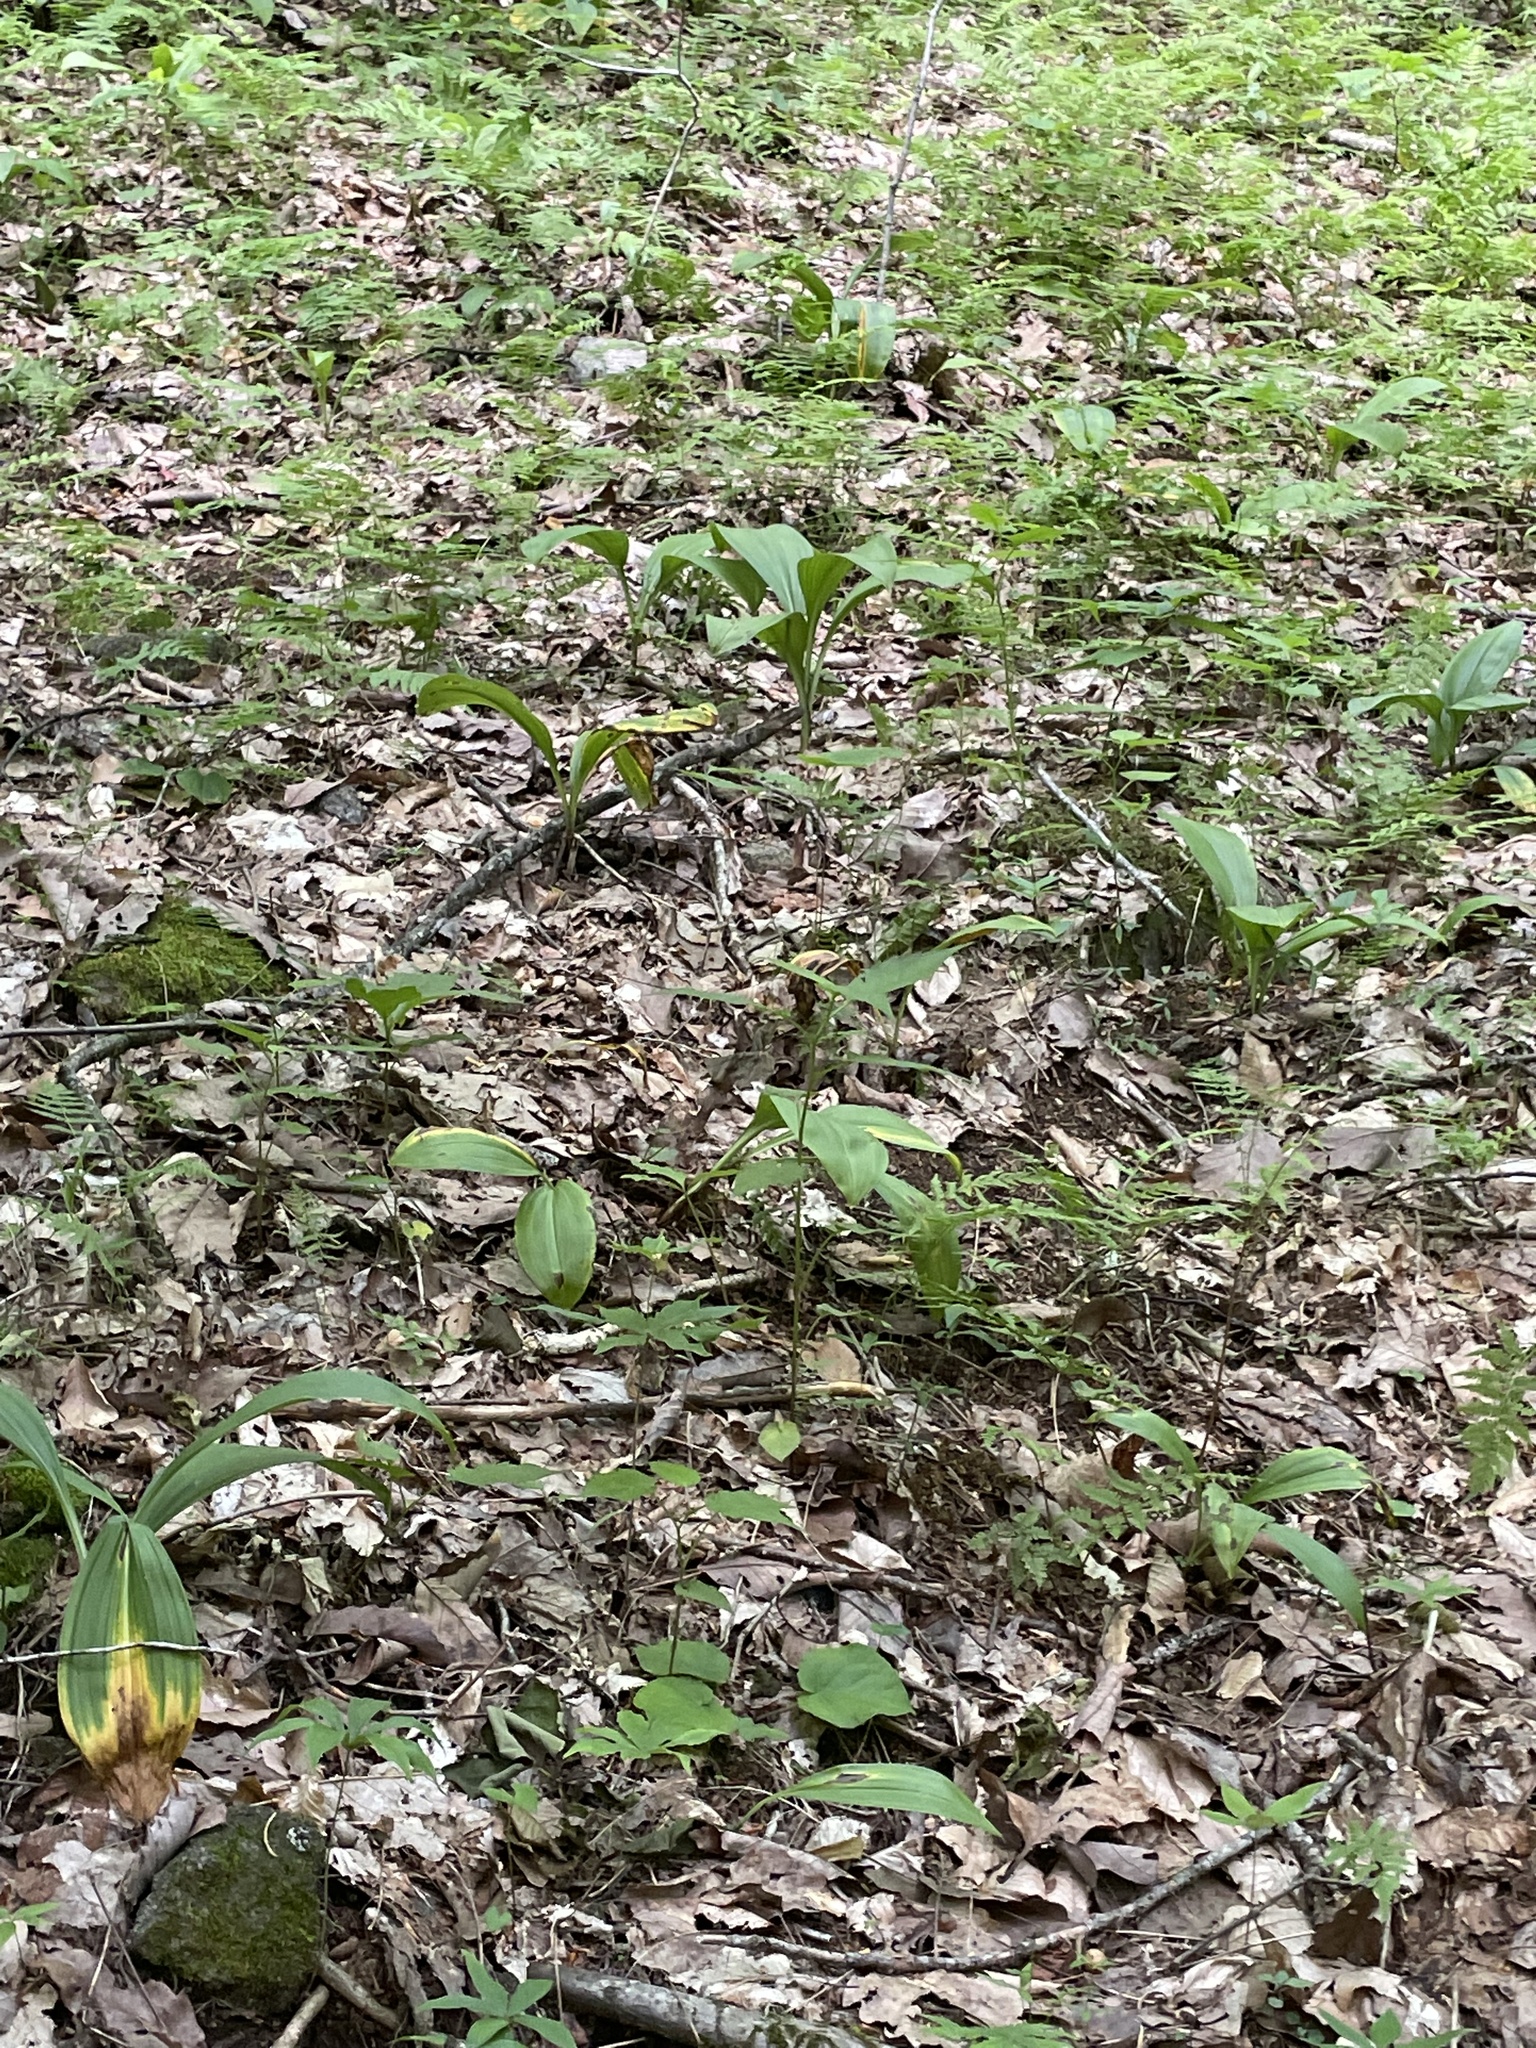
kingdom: Plantae
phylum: Tracheophyta
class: Liliopsida
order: Liliales
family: Melanthiaceae
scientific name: Melanthiaceae
